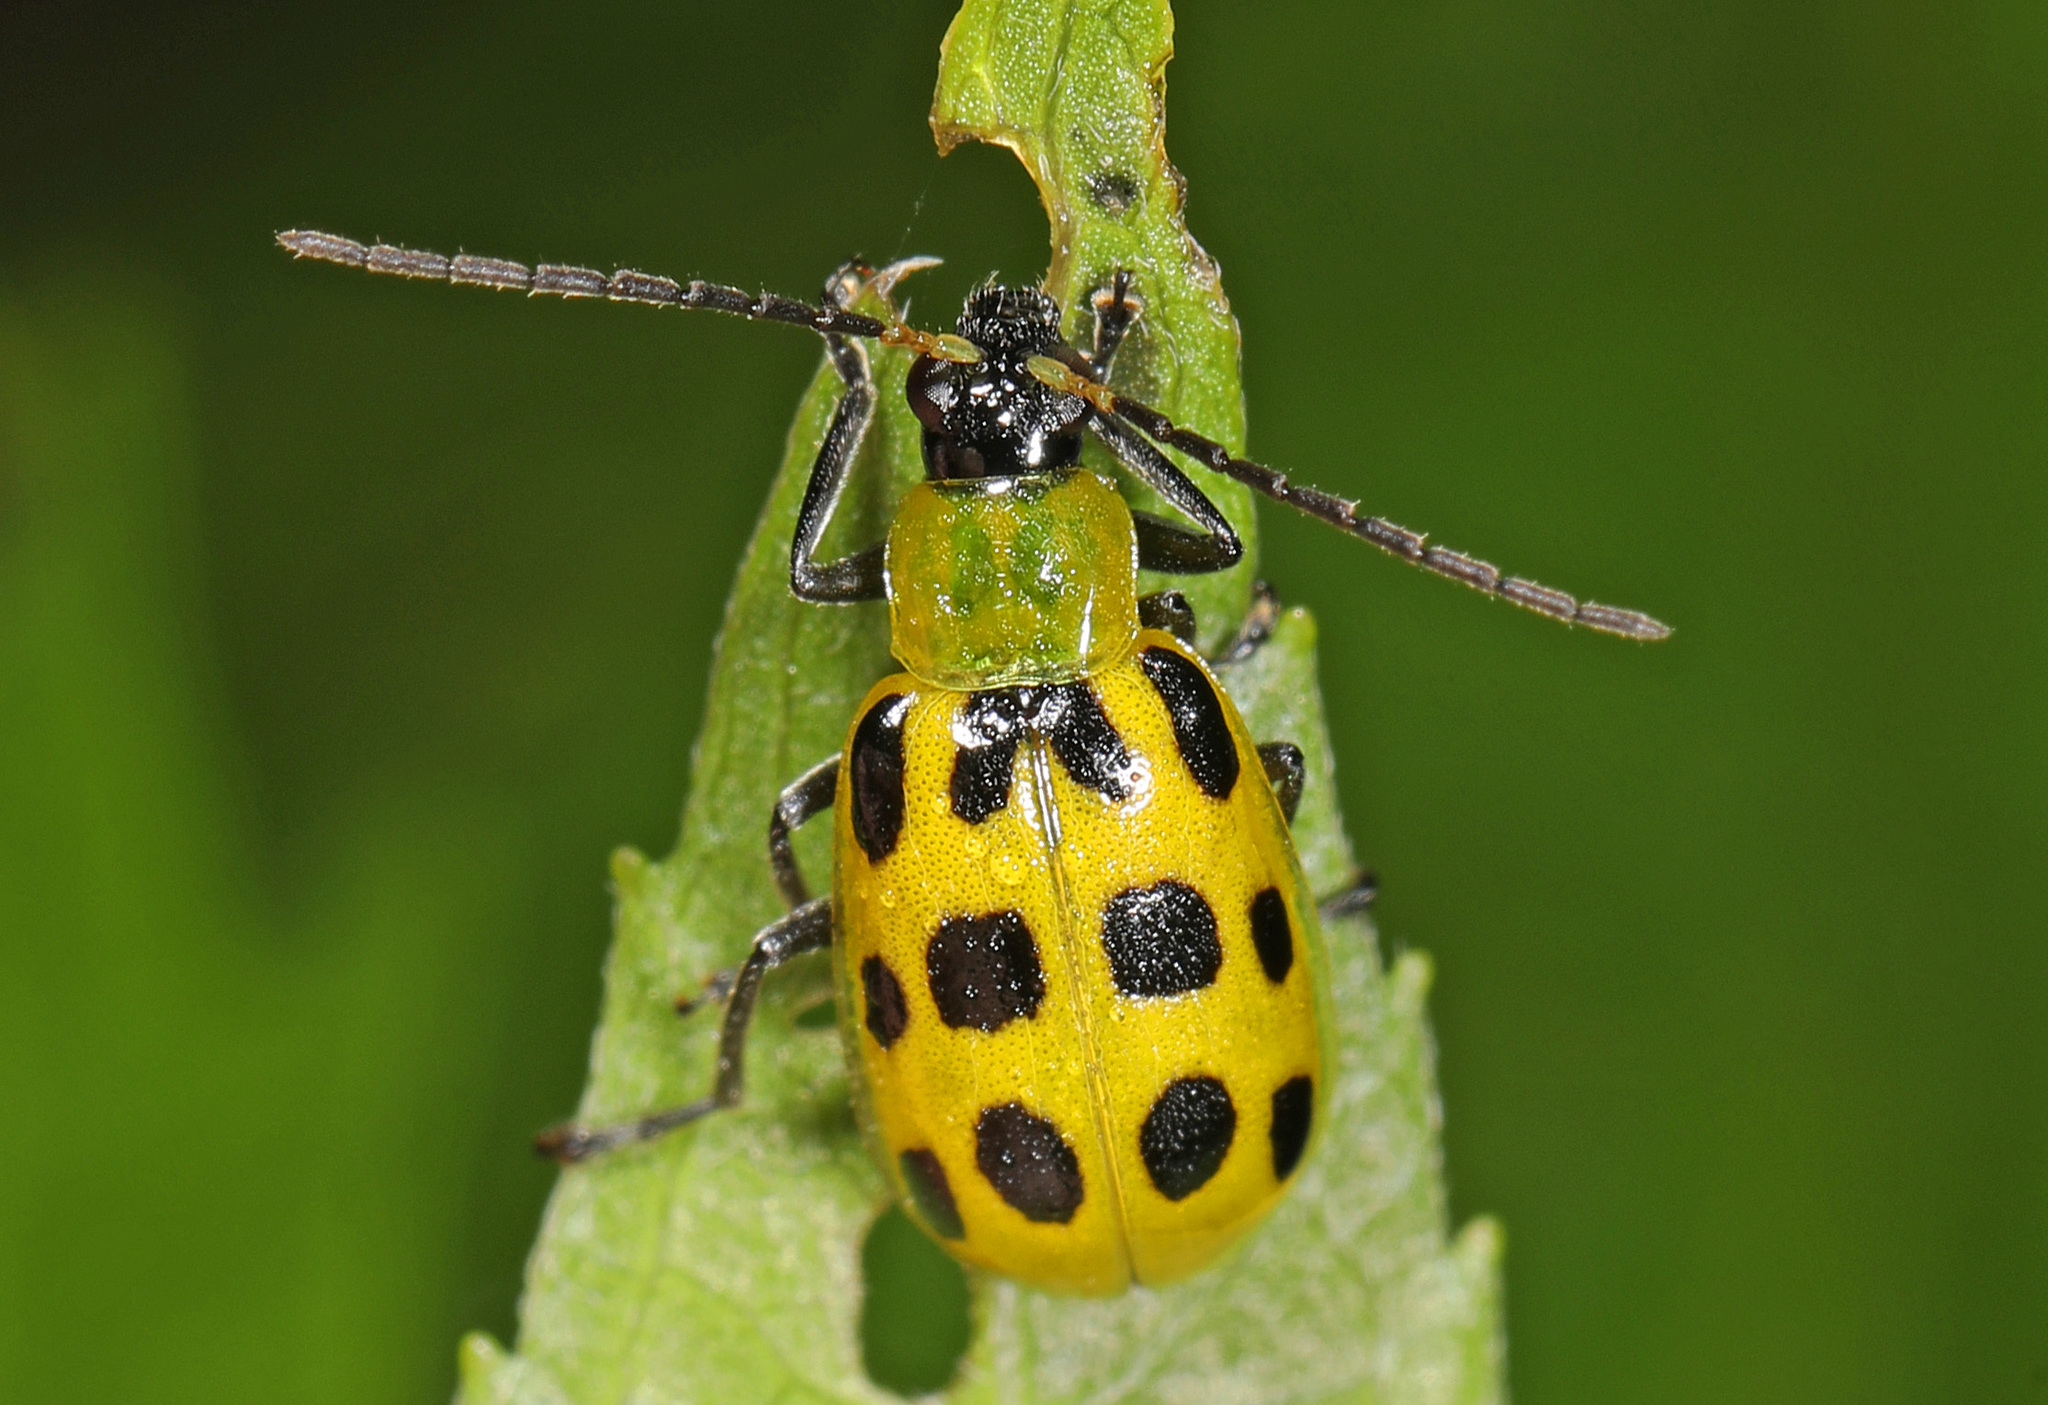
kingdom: Animalia
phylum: Arthropoda
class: Insecta
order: Coleoptera
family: Chrysomelidae
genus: Diabrotica
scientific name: Diabrotica undecimpunctata
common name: Spotted cucumber beetle
